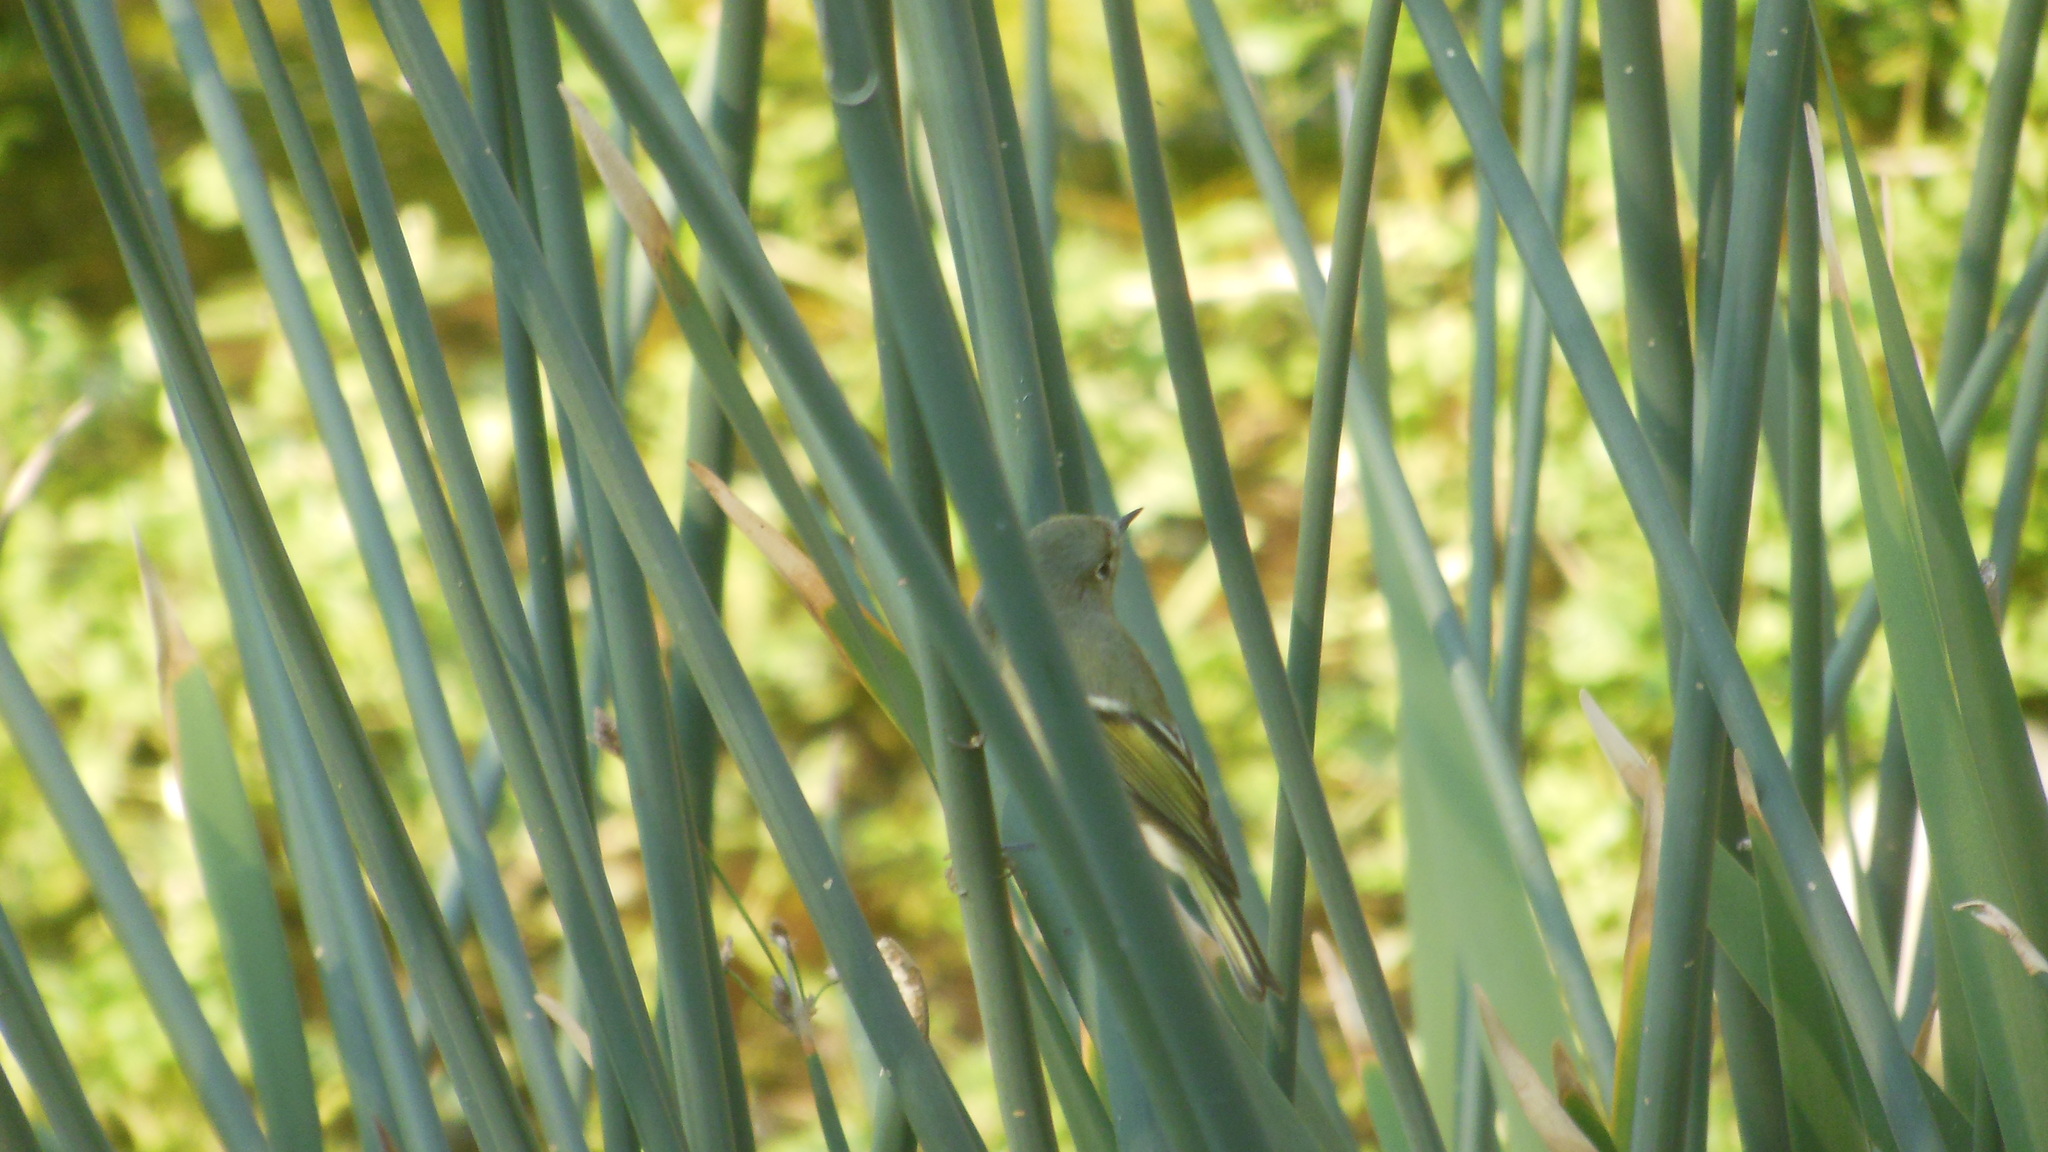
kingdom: Animalia
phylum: Chordata
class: Aves
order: Passeriformes
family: Regulidae
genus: Regulus
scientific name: Regulus calendula
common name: Ruby-crowned kinglet
